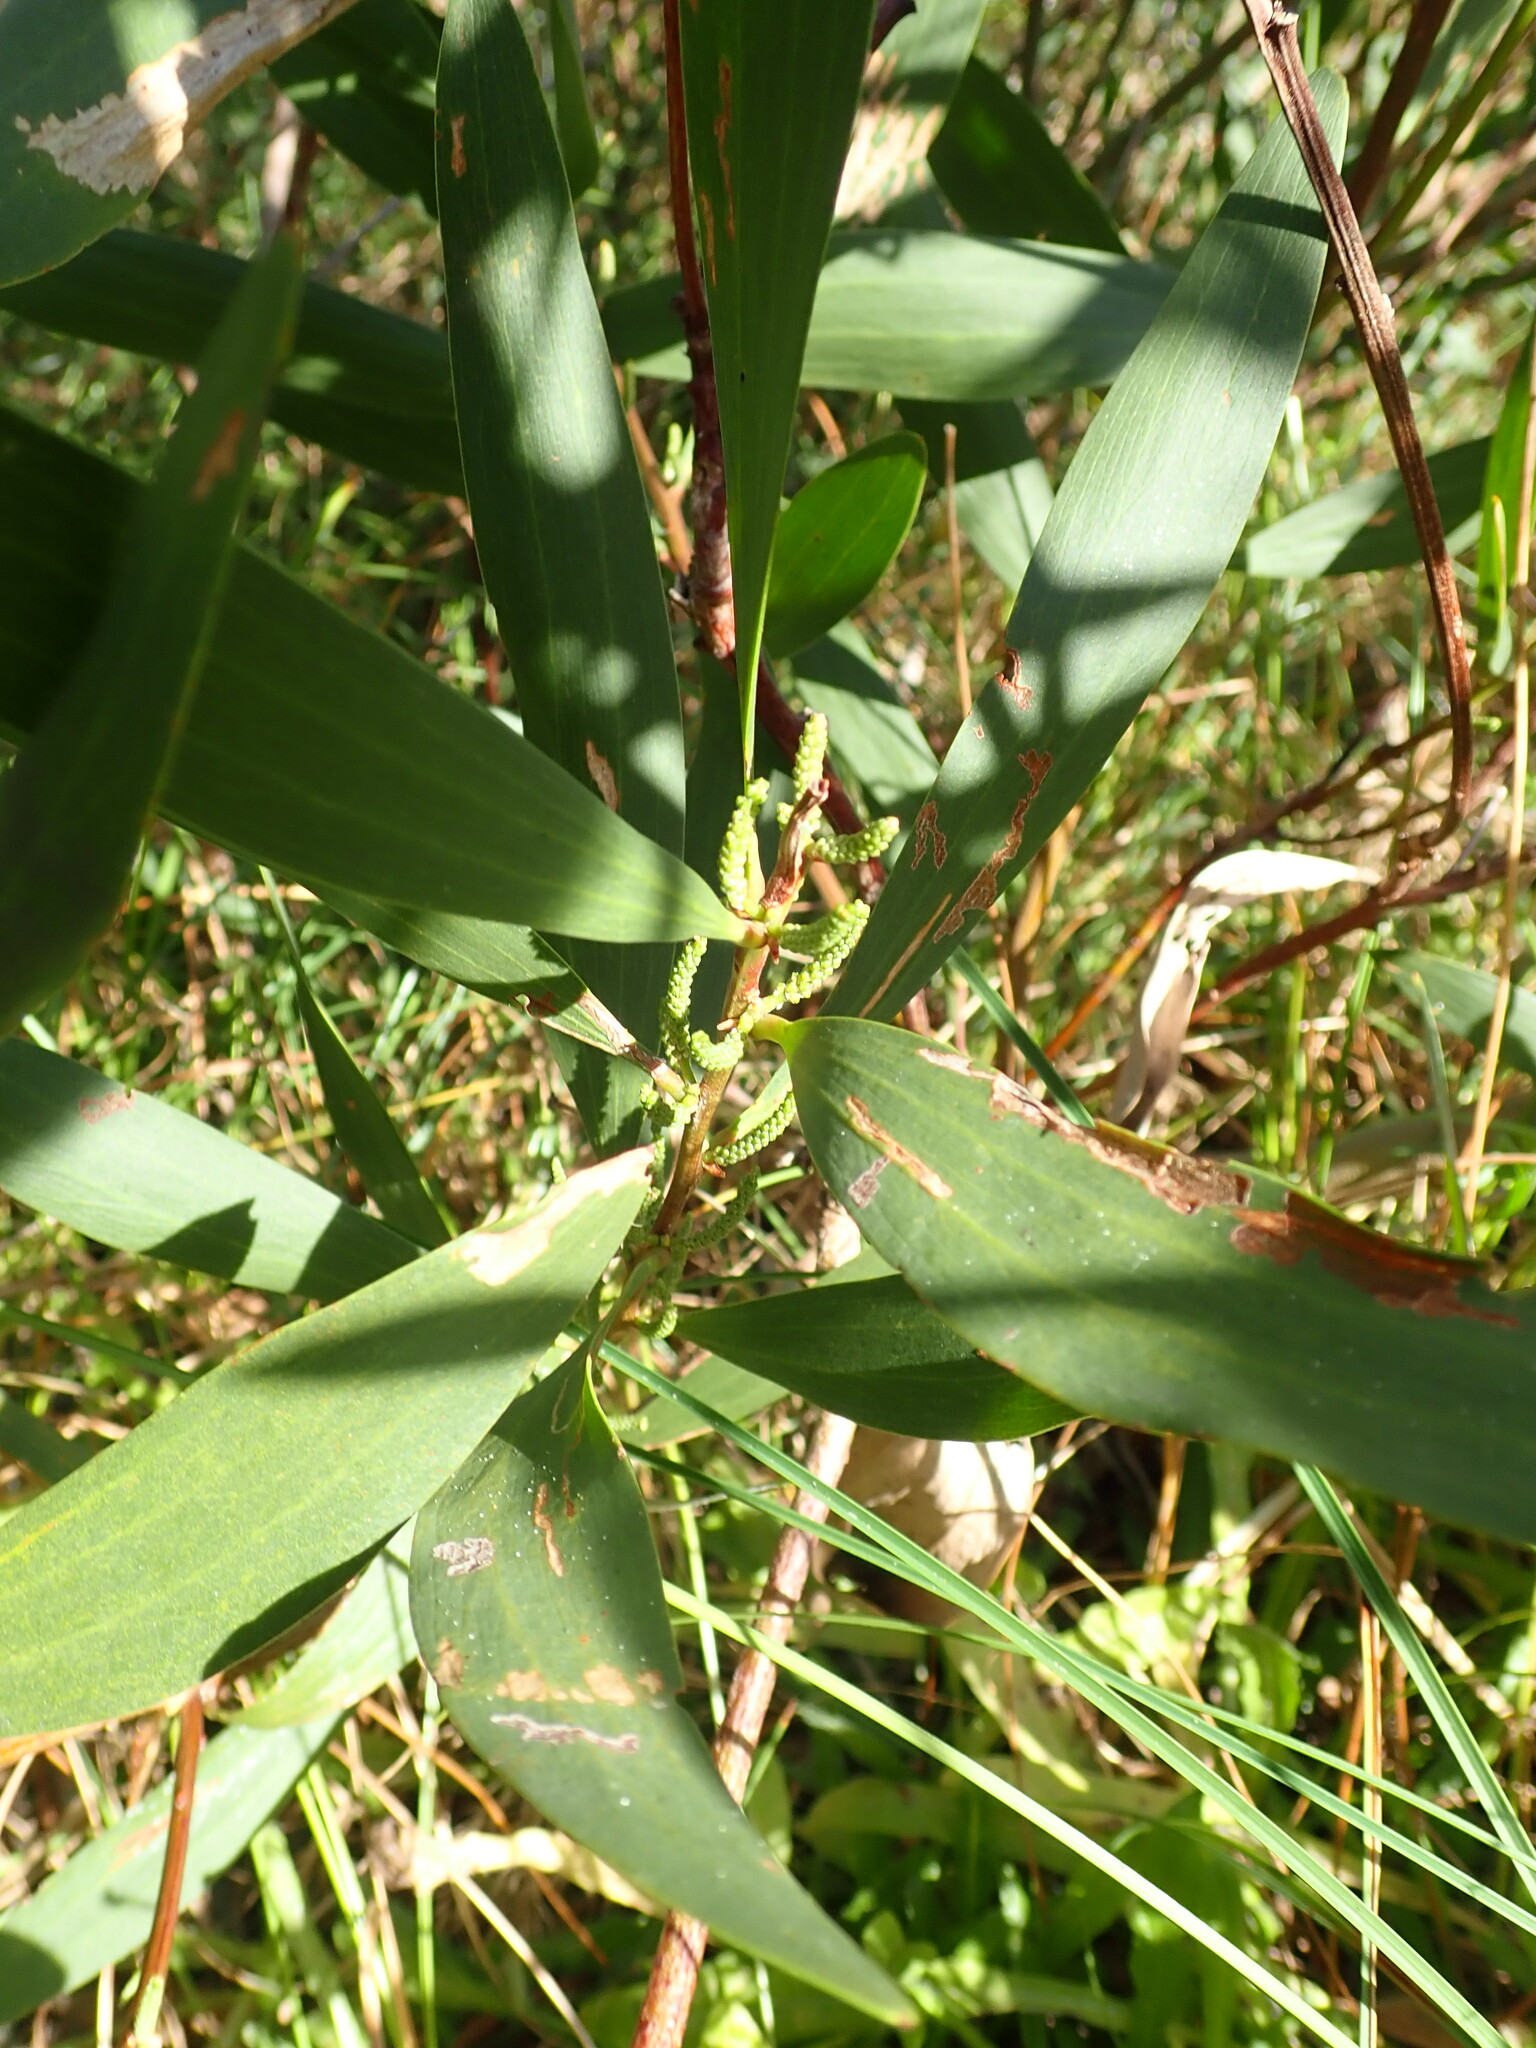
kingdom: Plantae
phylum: Tracheophyta
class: Magnoliopsida
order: Fabales
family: Fabaceae
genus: Acacia
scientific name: Acacia longifolia
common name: Sydney golden wattle
